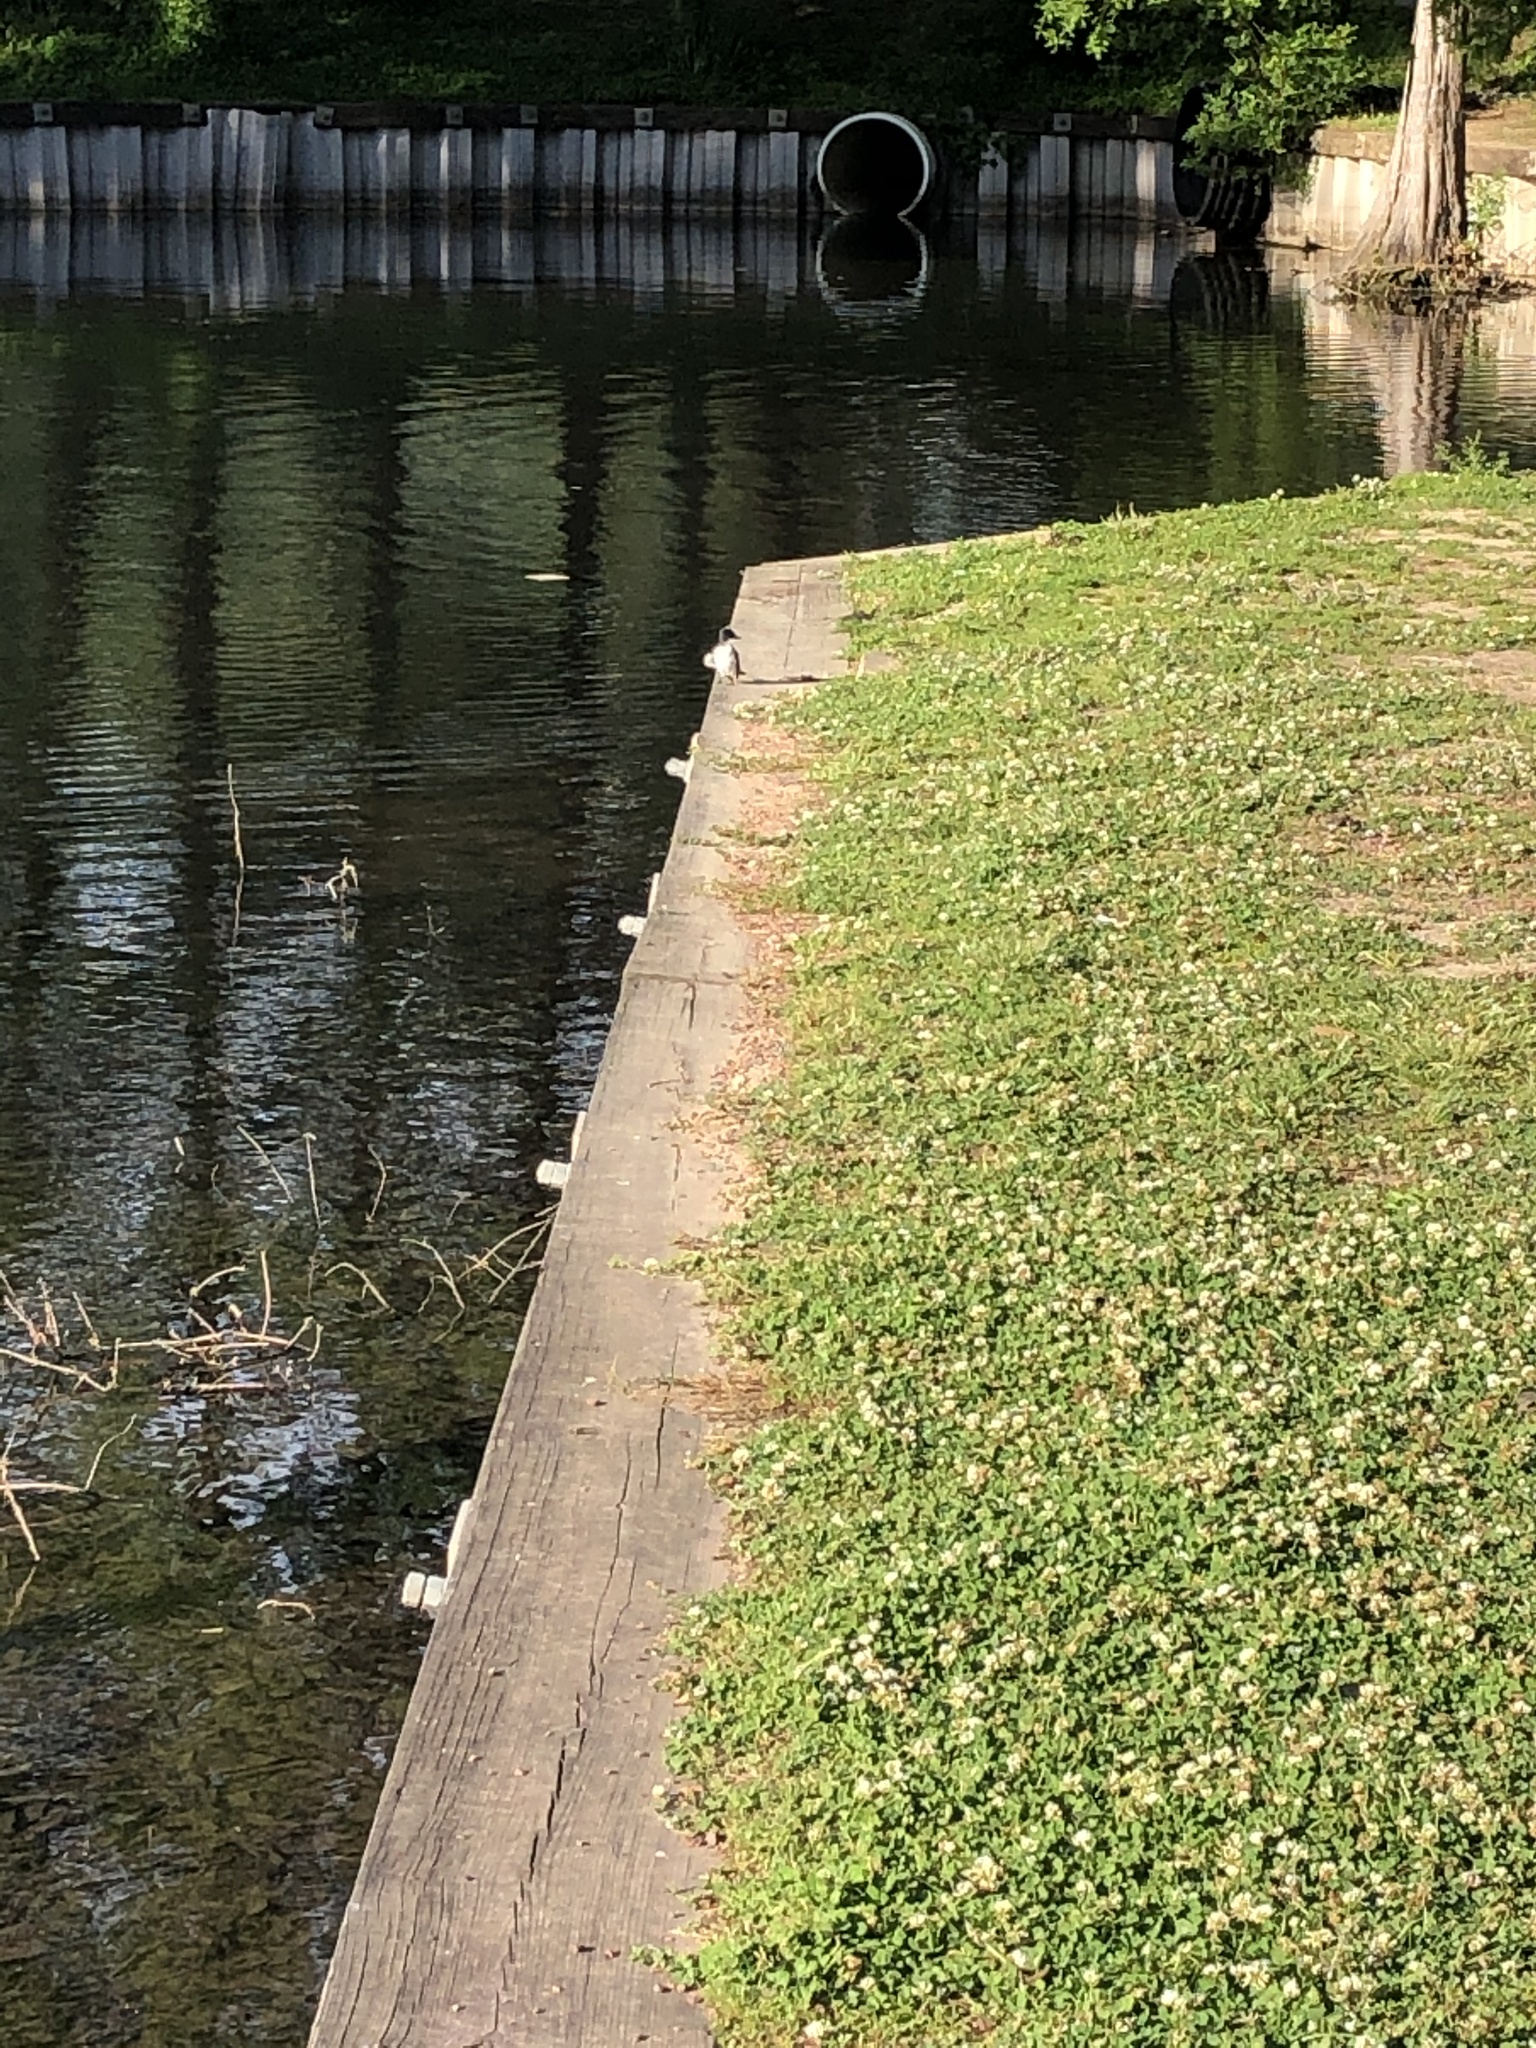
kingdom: Animalia
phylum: Chordata
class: Aves
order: Passeriformes
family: Tyrannidae
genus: Tyrannus
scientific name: Tyrannus tyrannus
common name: Eastern kingbird
